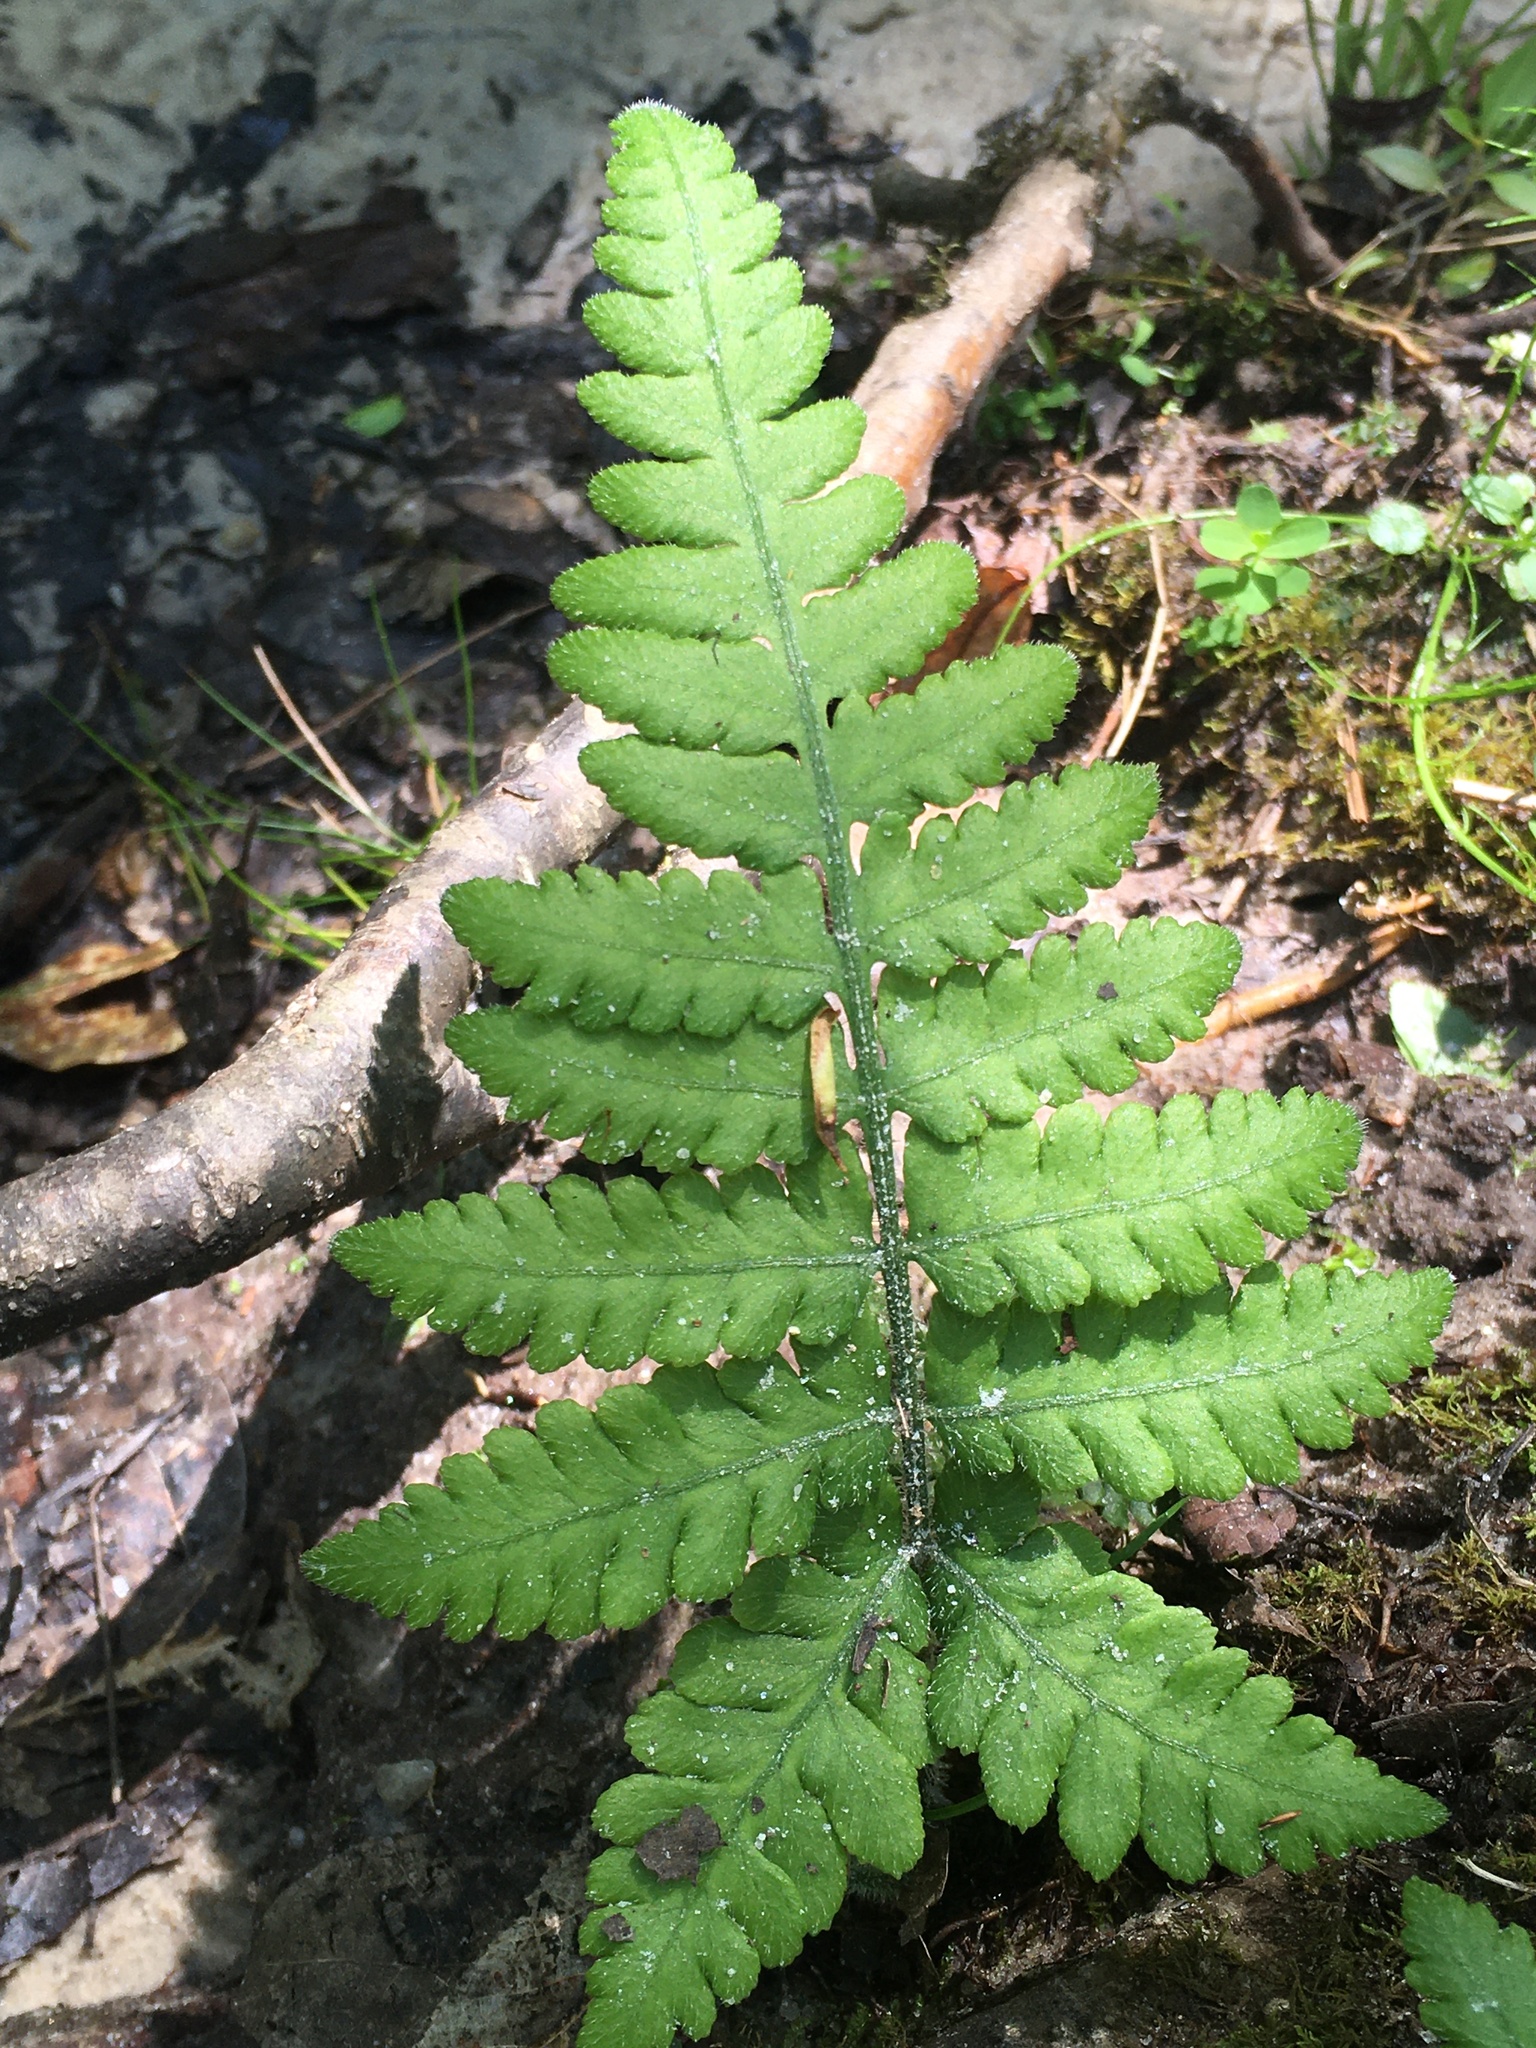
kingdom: Plantae
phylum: Tracheophyta
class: Polypodiopsida
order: Polypodiales
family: Athyriaceae
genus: Deparia
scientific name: Deparia petersenii
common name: Japanese false spleenwort
